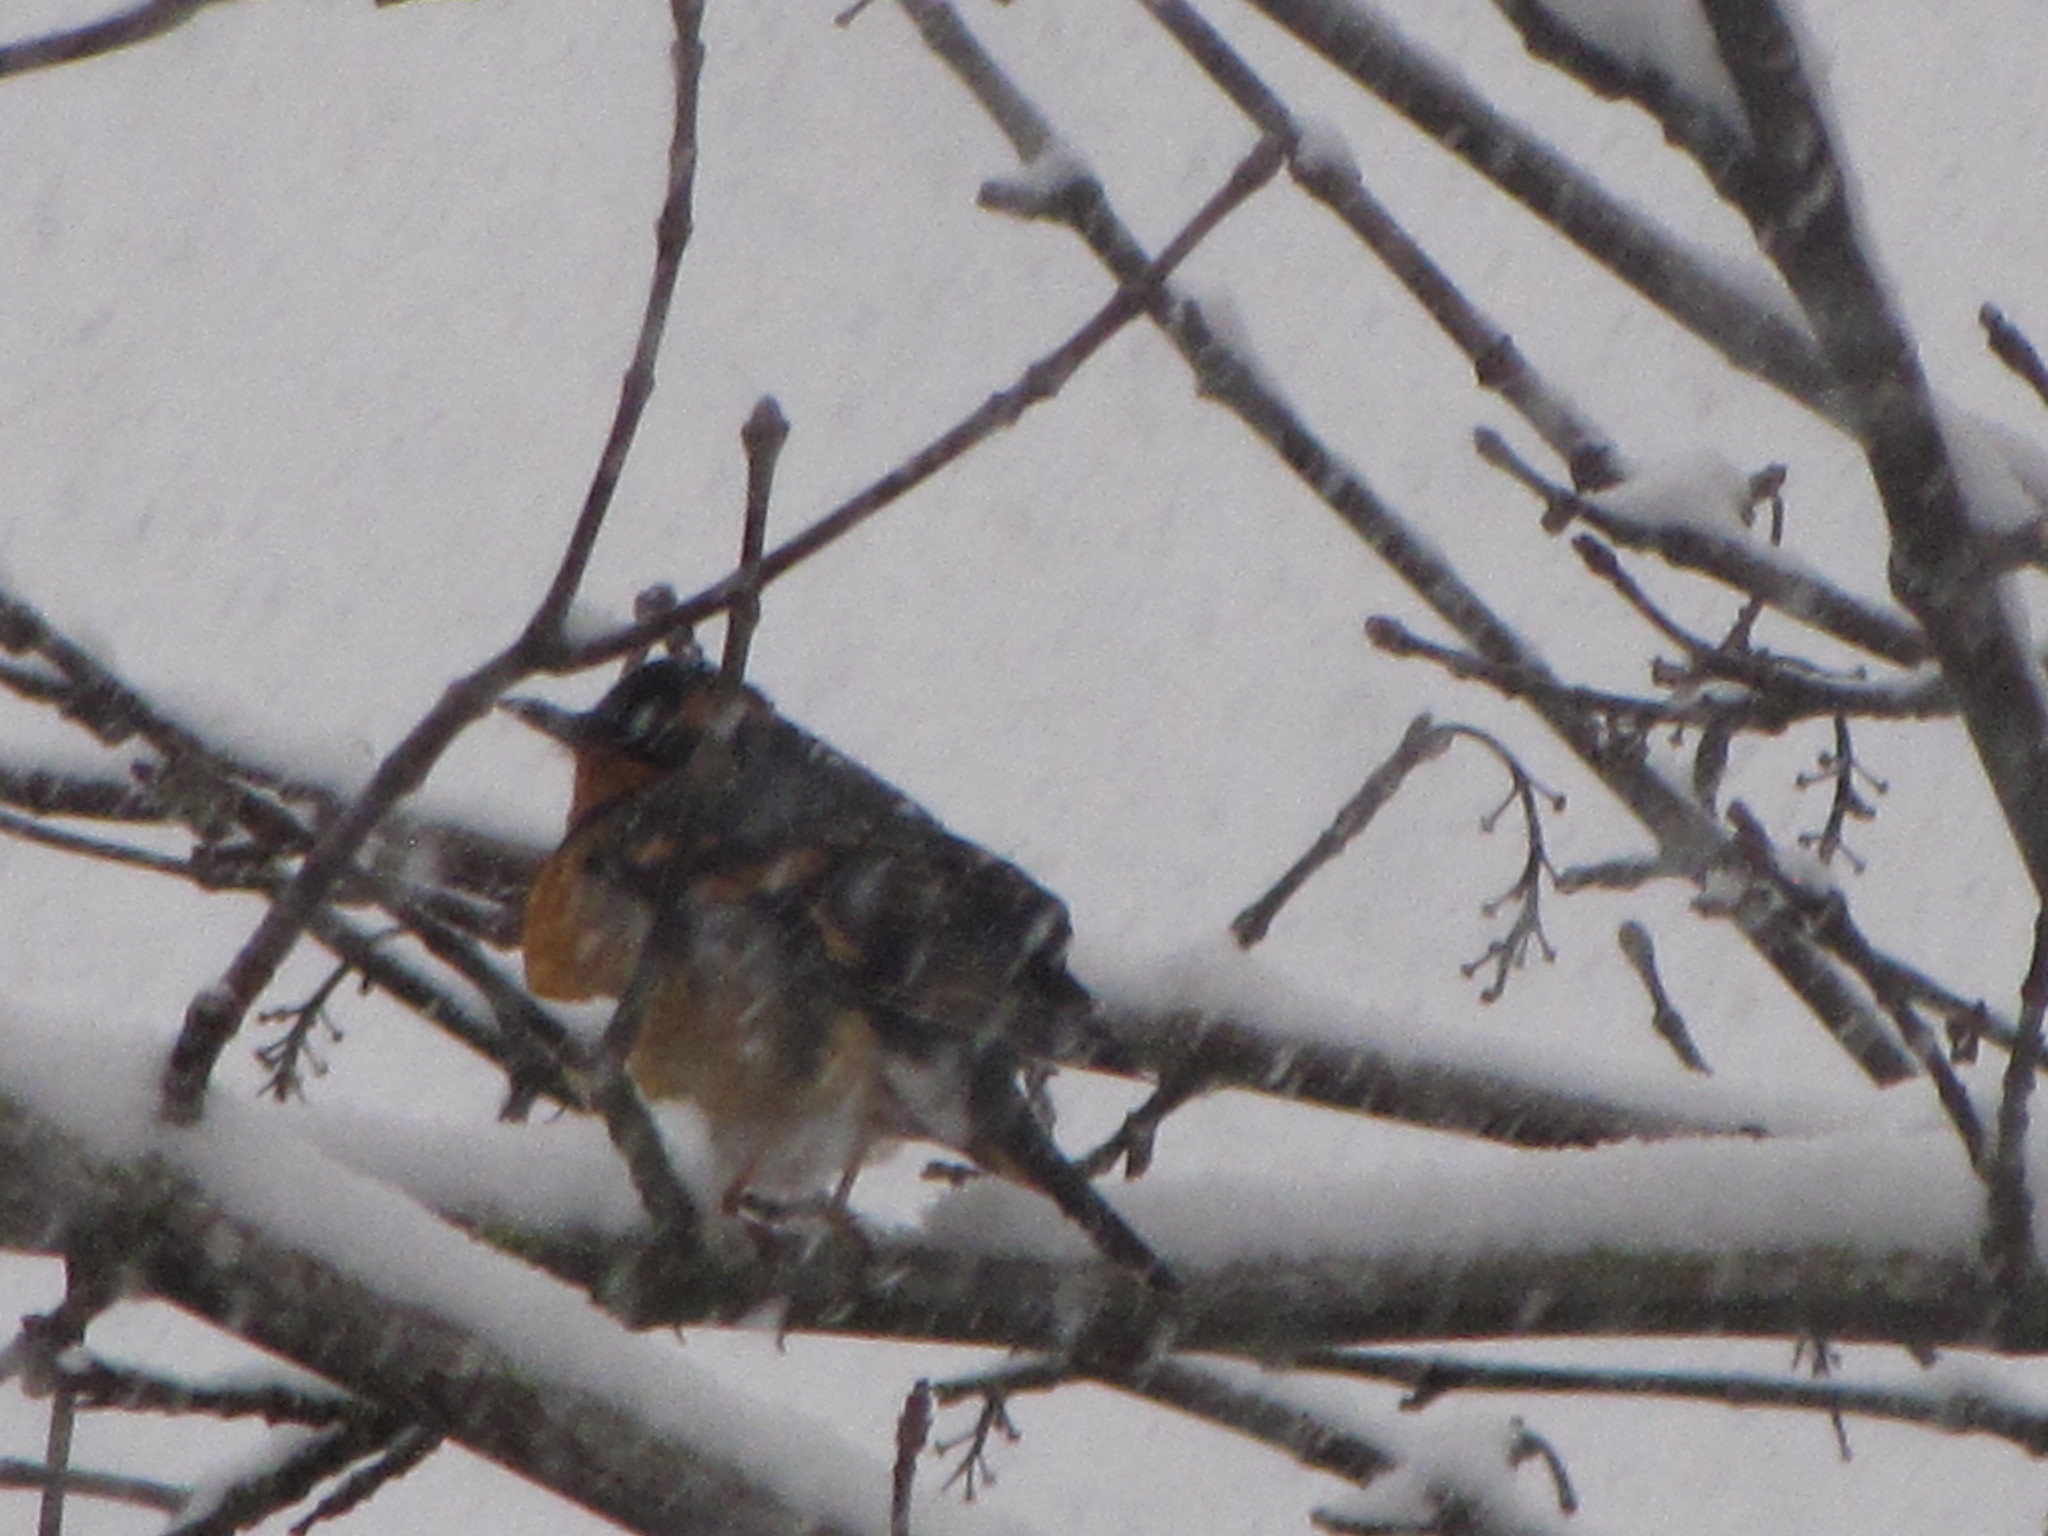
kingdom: Animalia
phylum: Chordata
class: Aves
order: Passeriformes
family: Turdidae
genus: Ixoreus
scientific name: Ixoreus naevius
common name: Varied thrush
